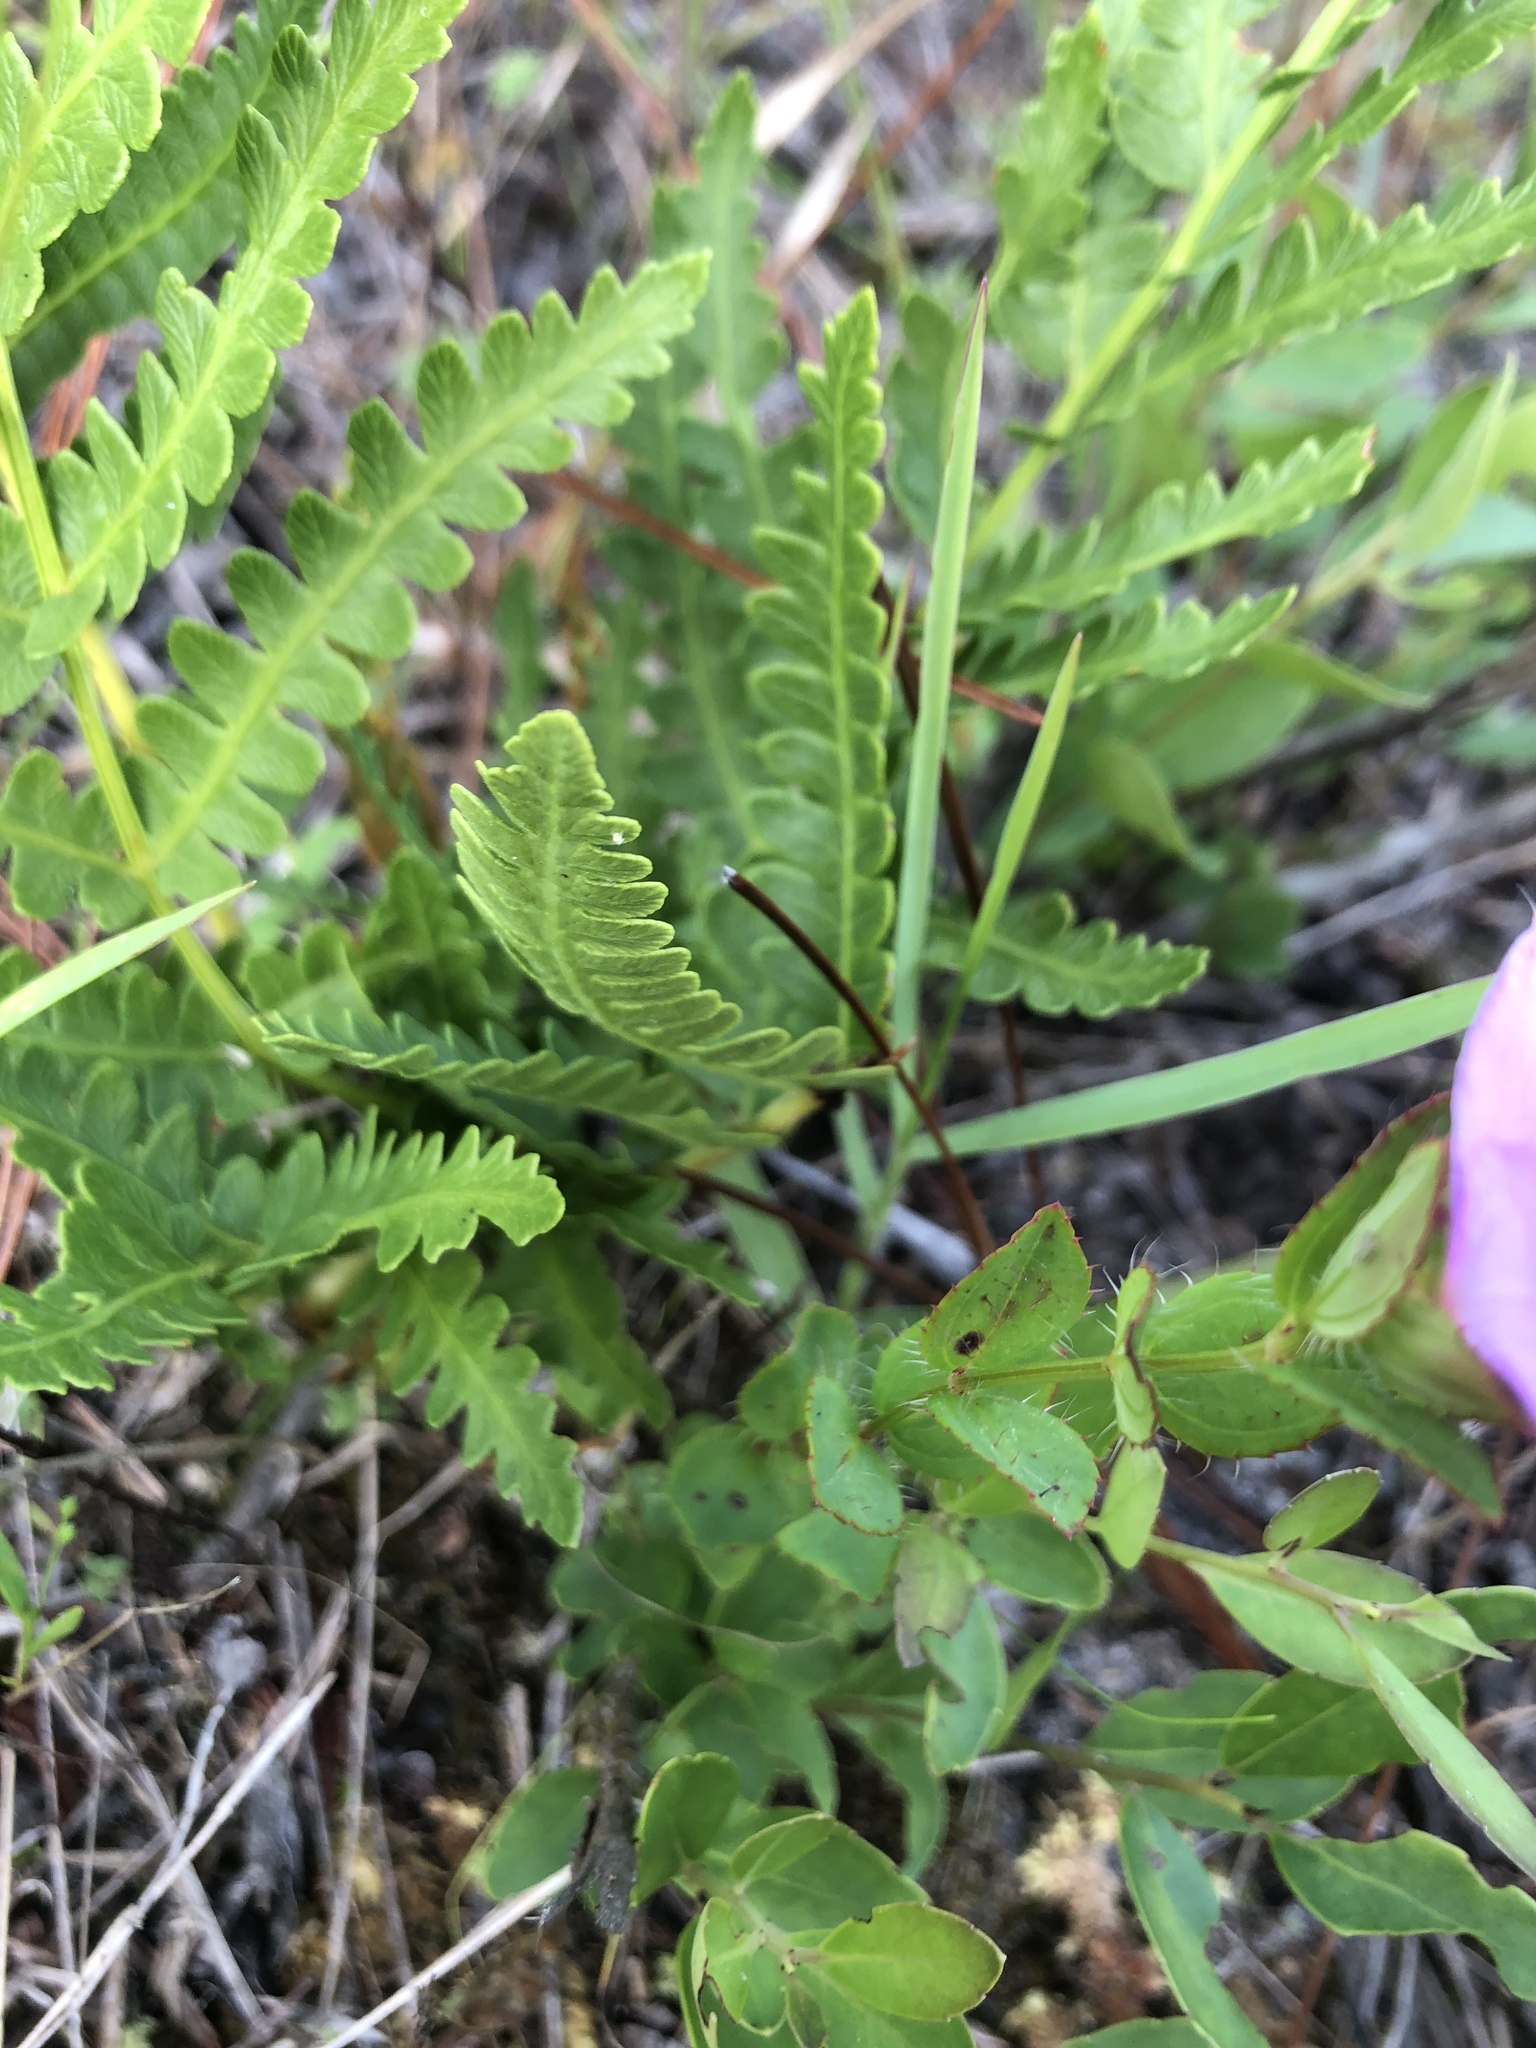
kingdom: Plantae
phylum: Tracheophyta
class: Magnoliopsida
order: Myrtales
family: Melastomataceae
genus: Rhexia
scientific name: Rhexia petiolata
